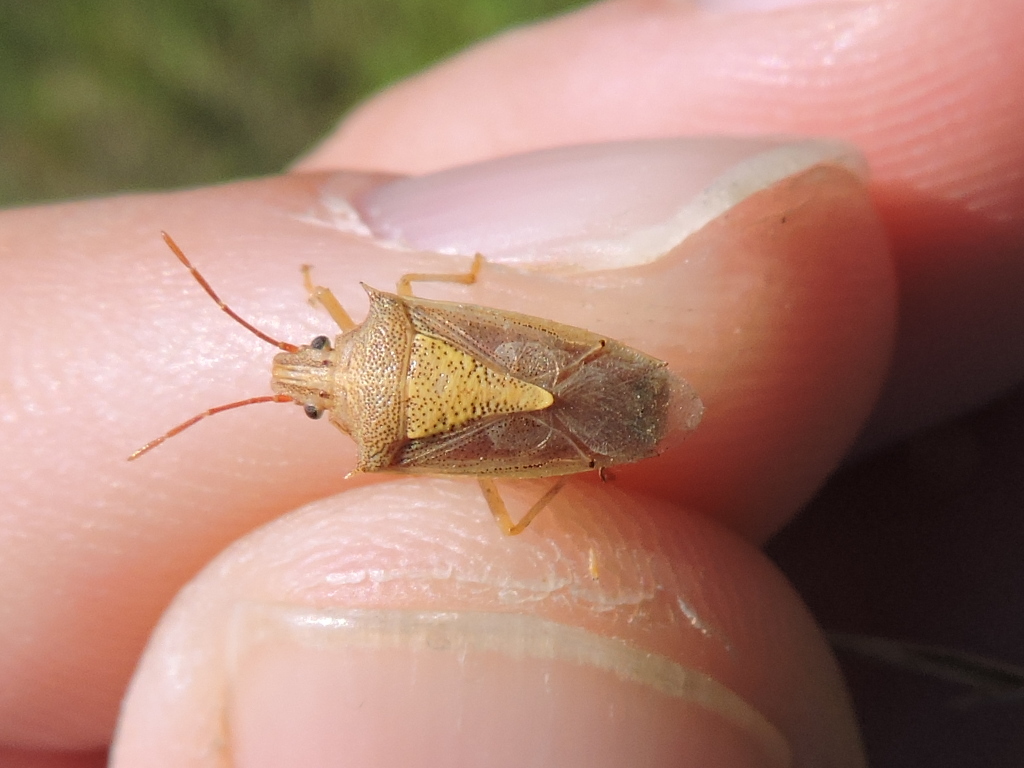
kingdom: Animalia
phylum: Arthropoda
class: Insecta
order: Hemiptera
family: Pentatomidae
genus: Oebalus
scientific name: Oebalus pugnax
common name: Rice stink bug
